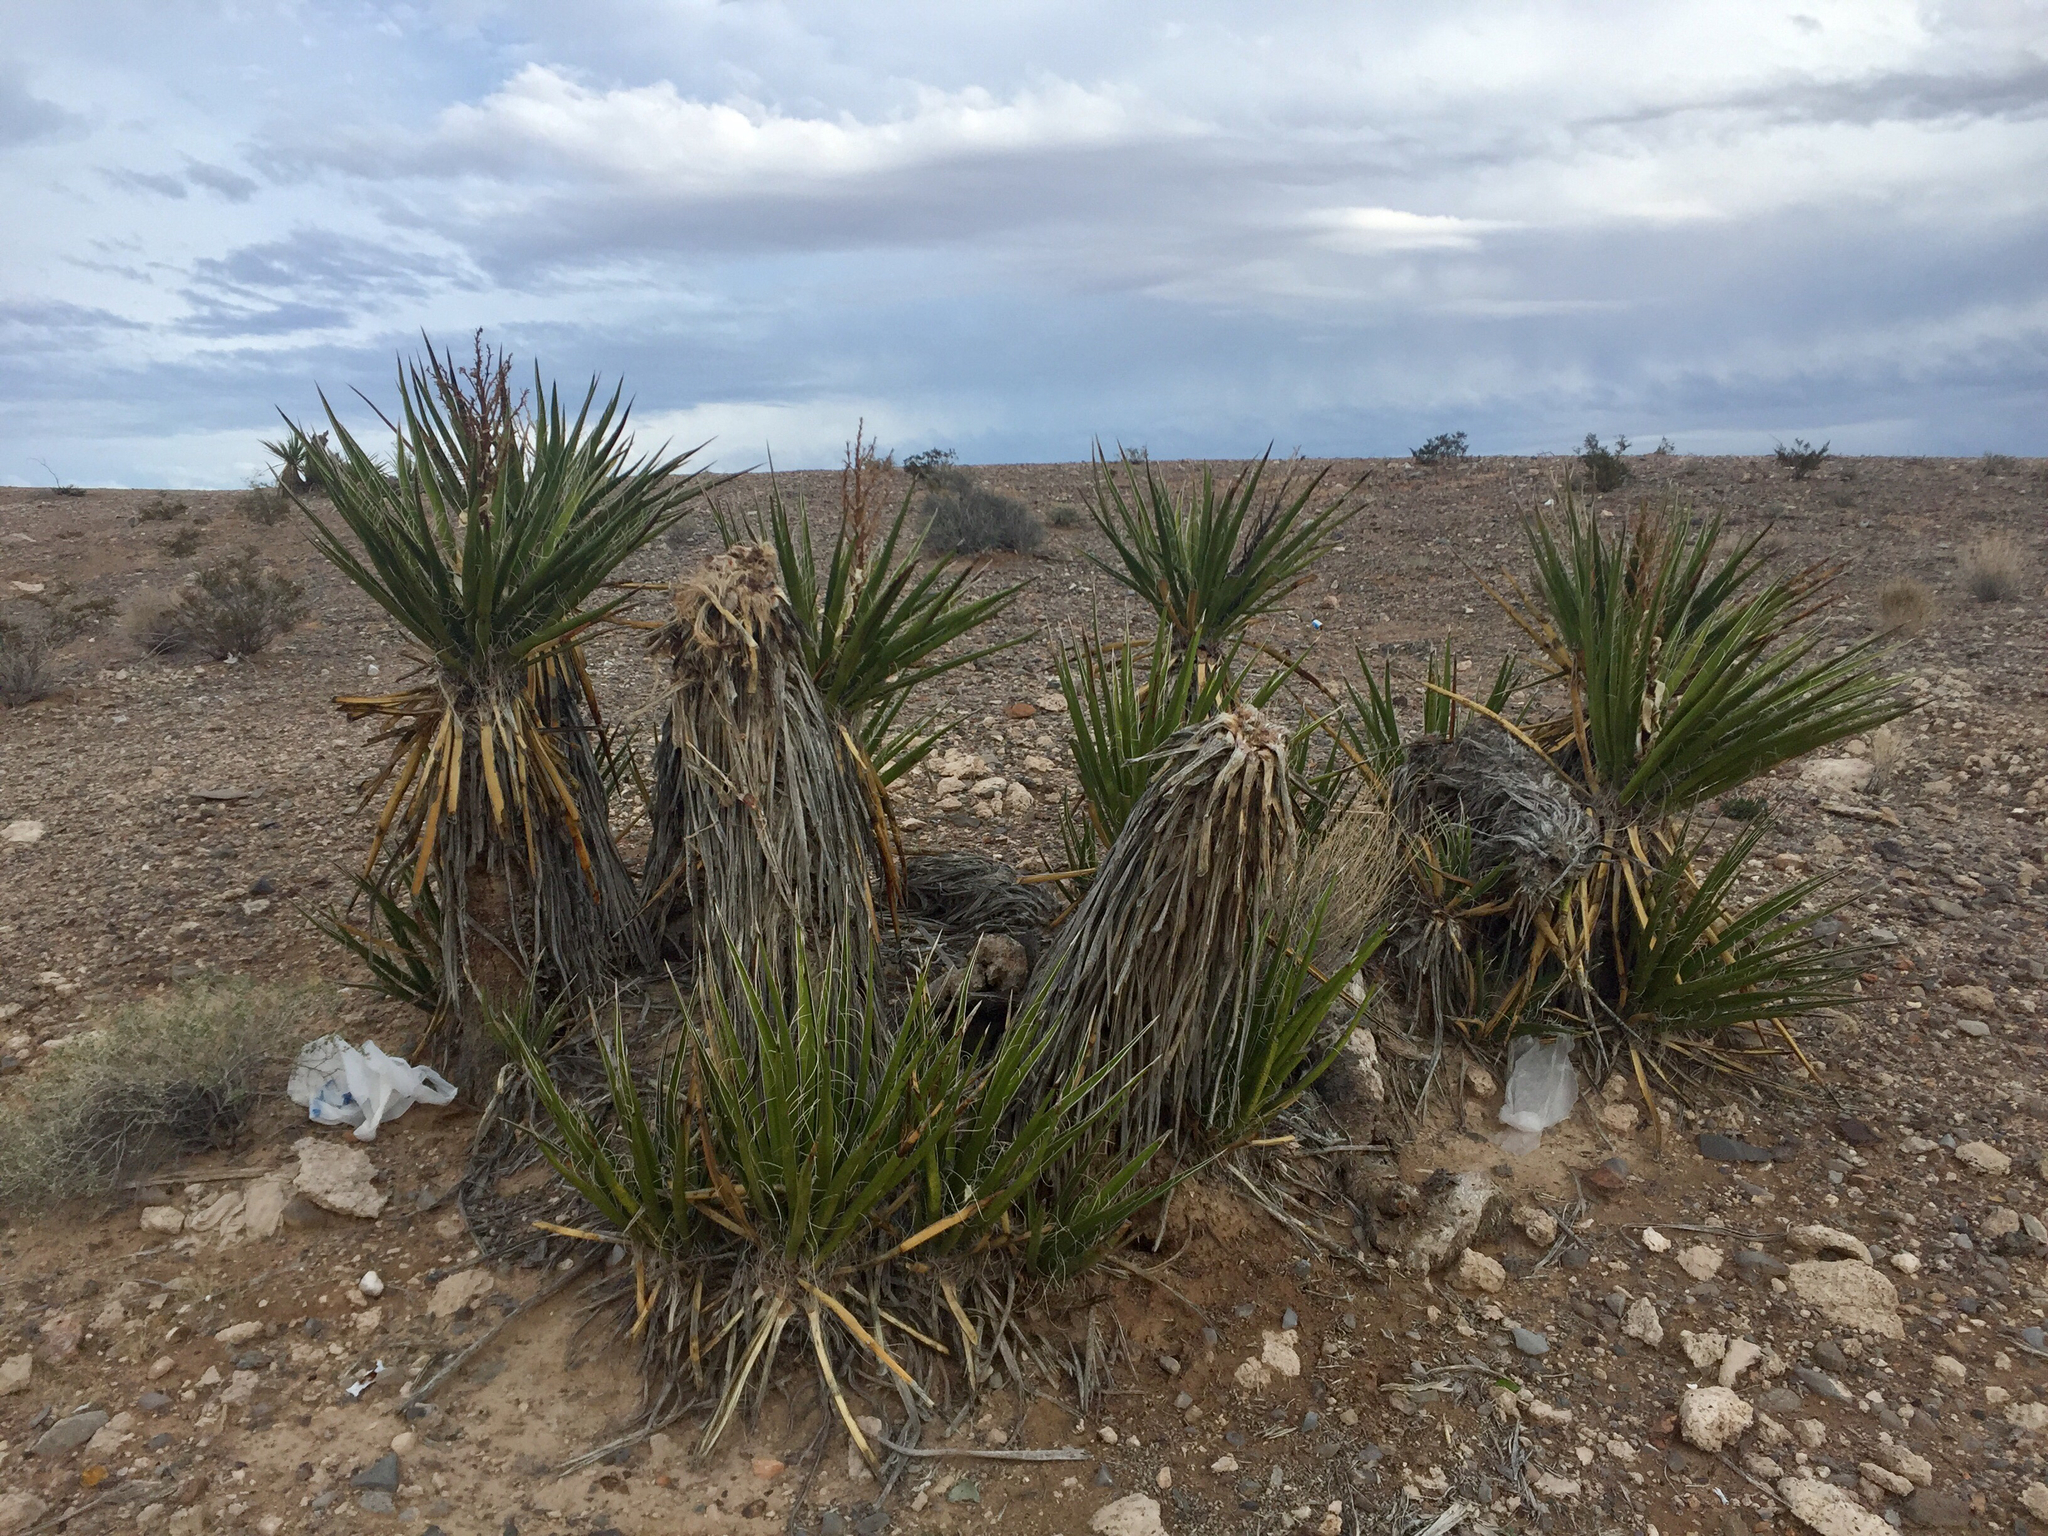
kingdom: Plantae
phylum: Tracheophyta
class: Liliopsida
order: Asparagales
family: Asparagaceae
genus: Yucca
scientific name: Yucca schidigera
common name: Mojave yucca
